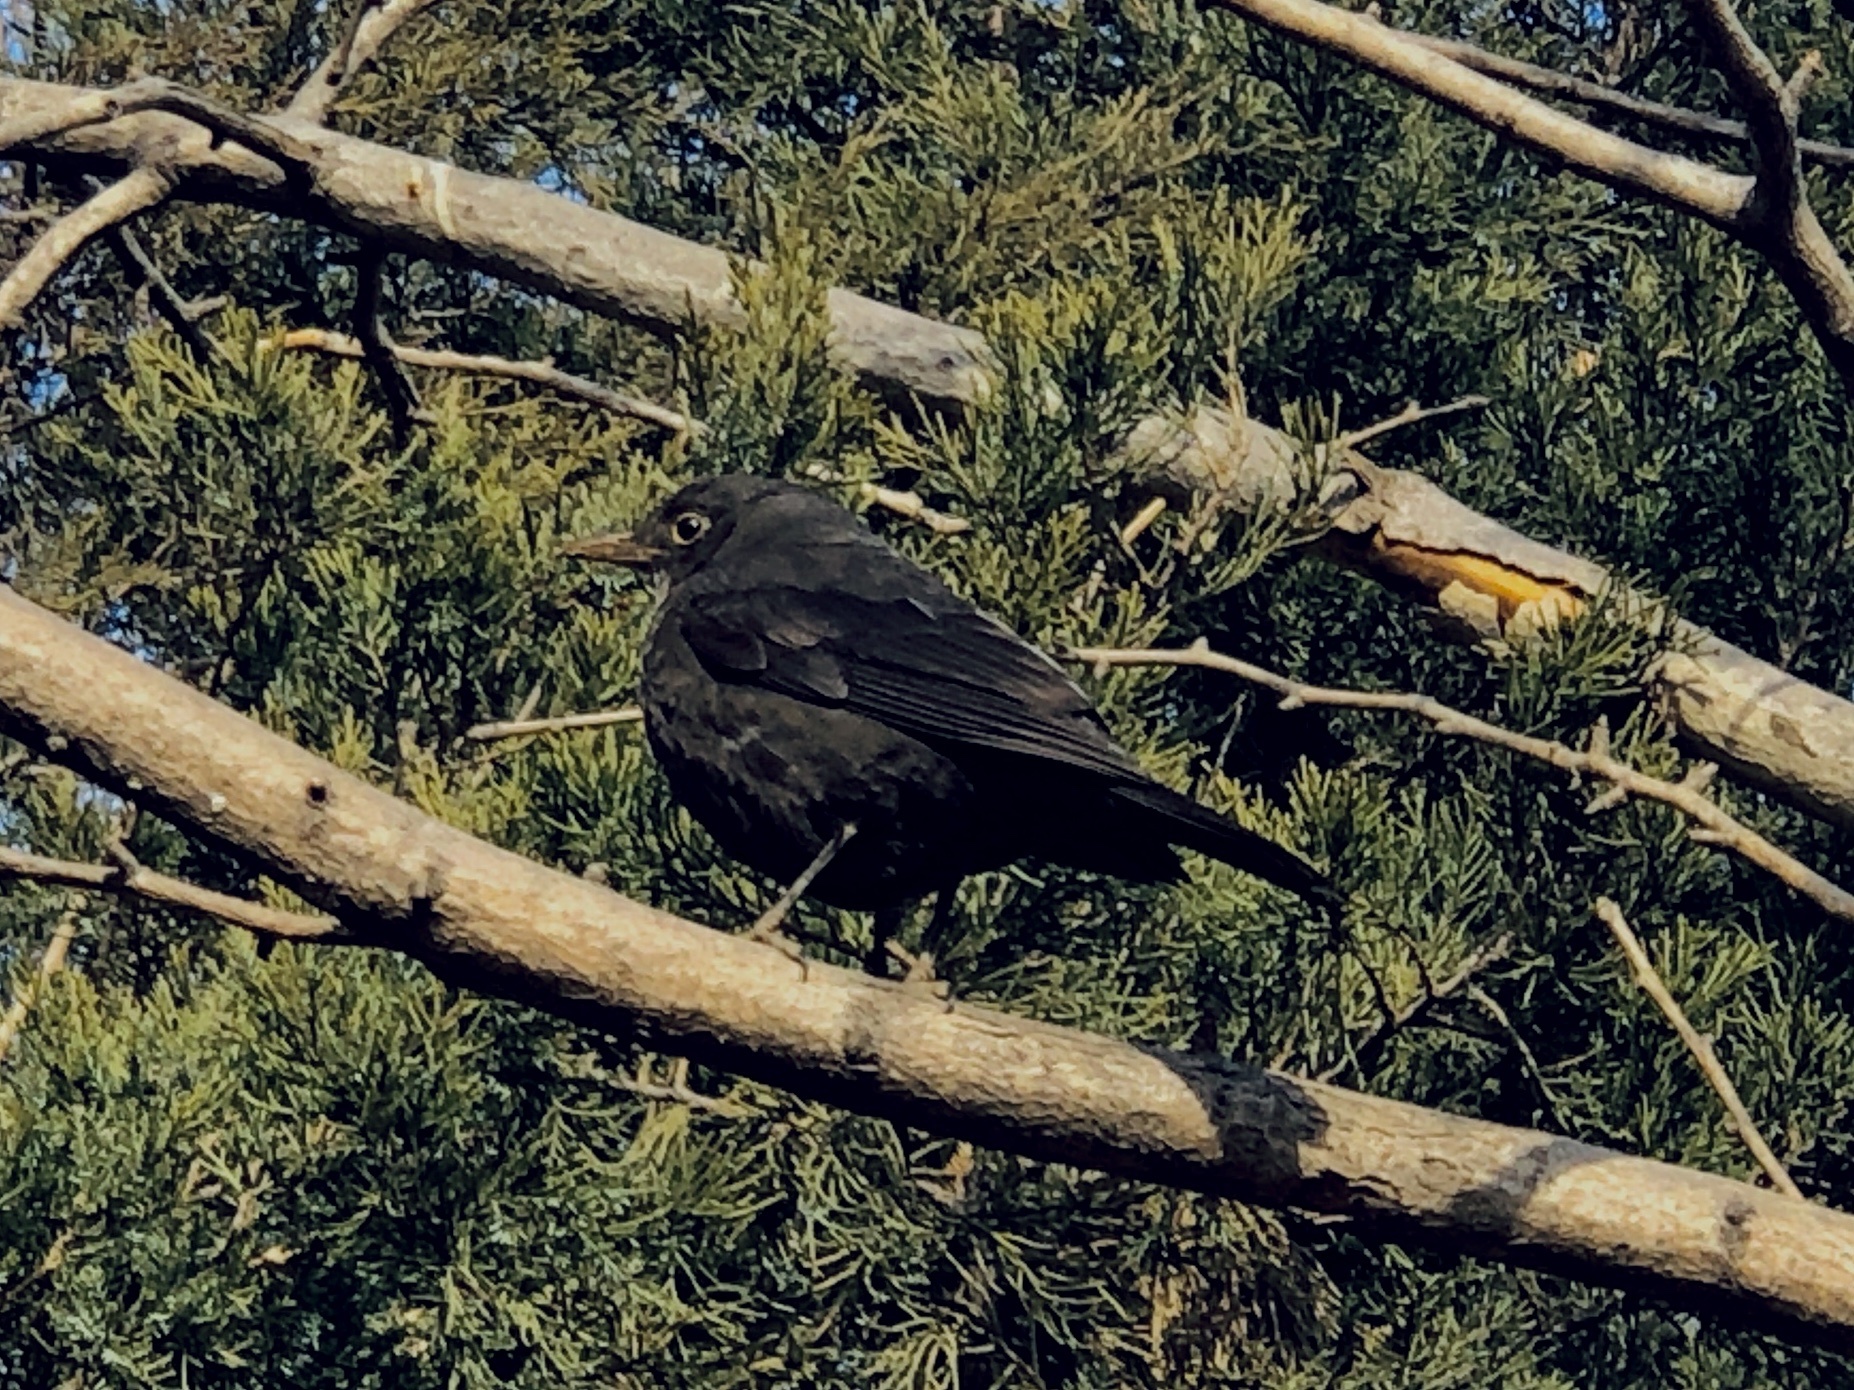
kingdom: Animalia
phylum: Chordata
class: Aves
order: Passeriformes
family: Turdidae
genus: Turdus
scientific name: Turdus mandarinus
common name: Chinese blackbird
